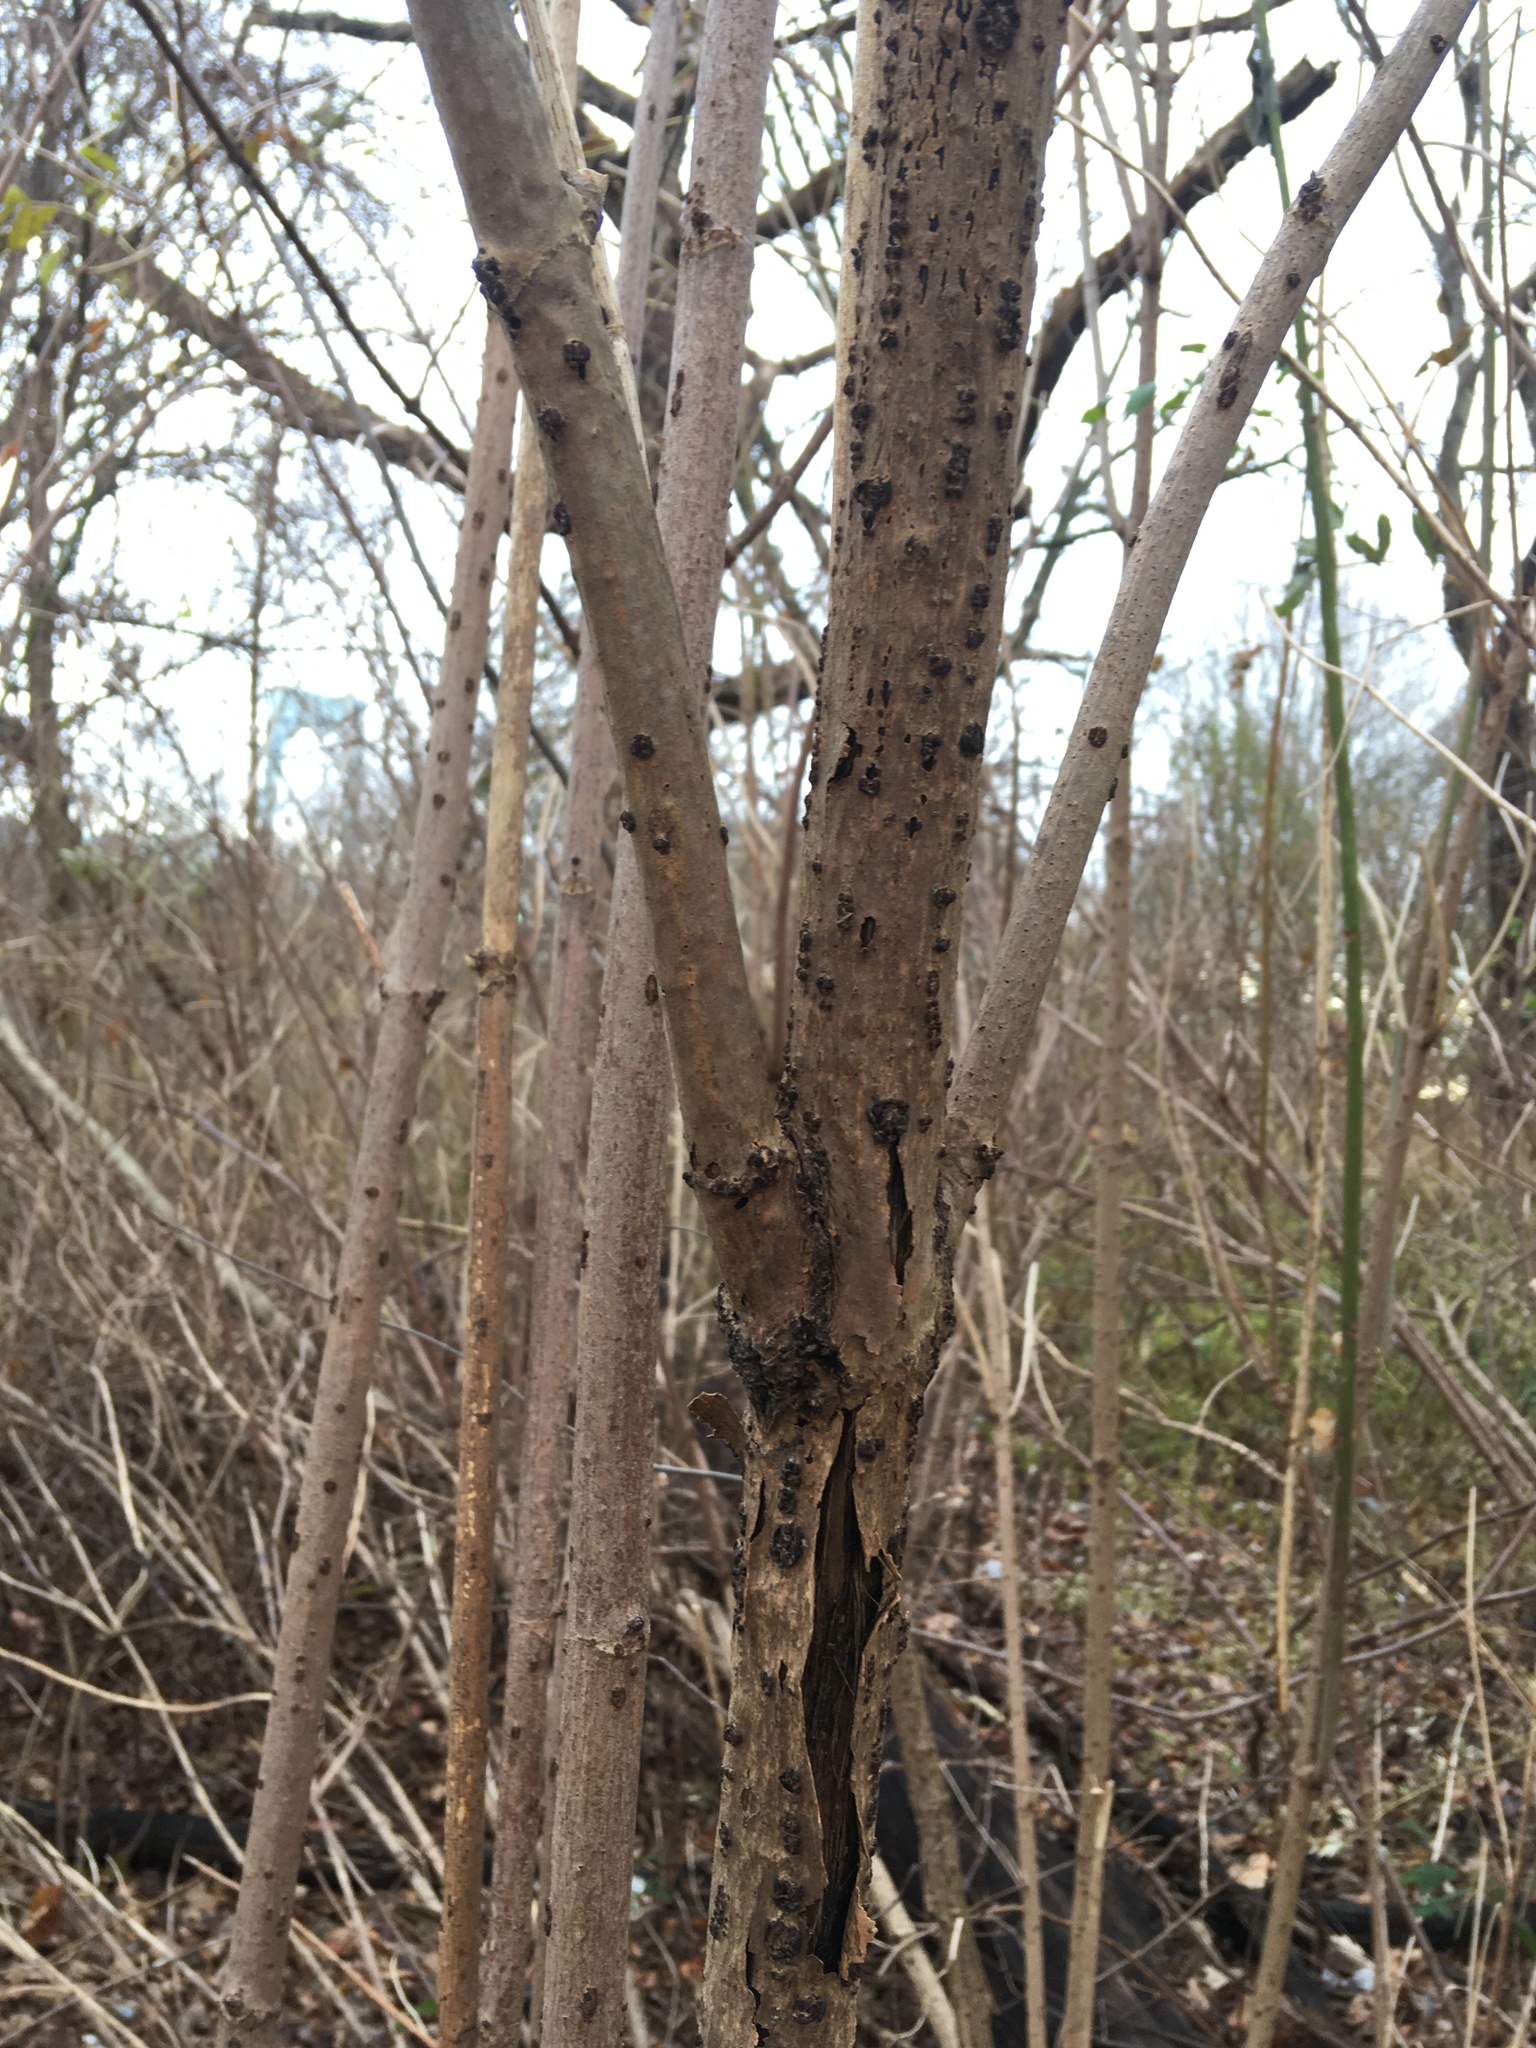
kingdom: Plantae
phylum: Tracheophyta
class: Magnoliopsida
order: Dipsacales
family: Viburnaceae
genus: Sambucus
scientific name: Sambucus canadensis
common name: American elder
